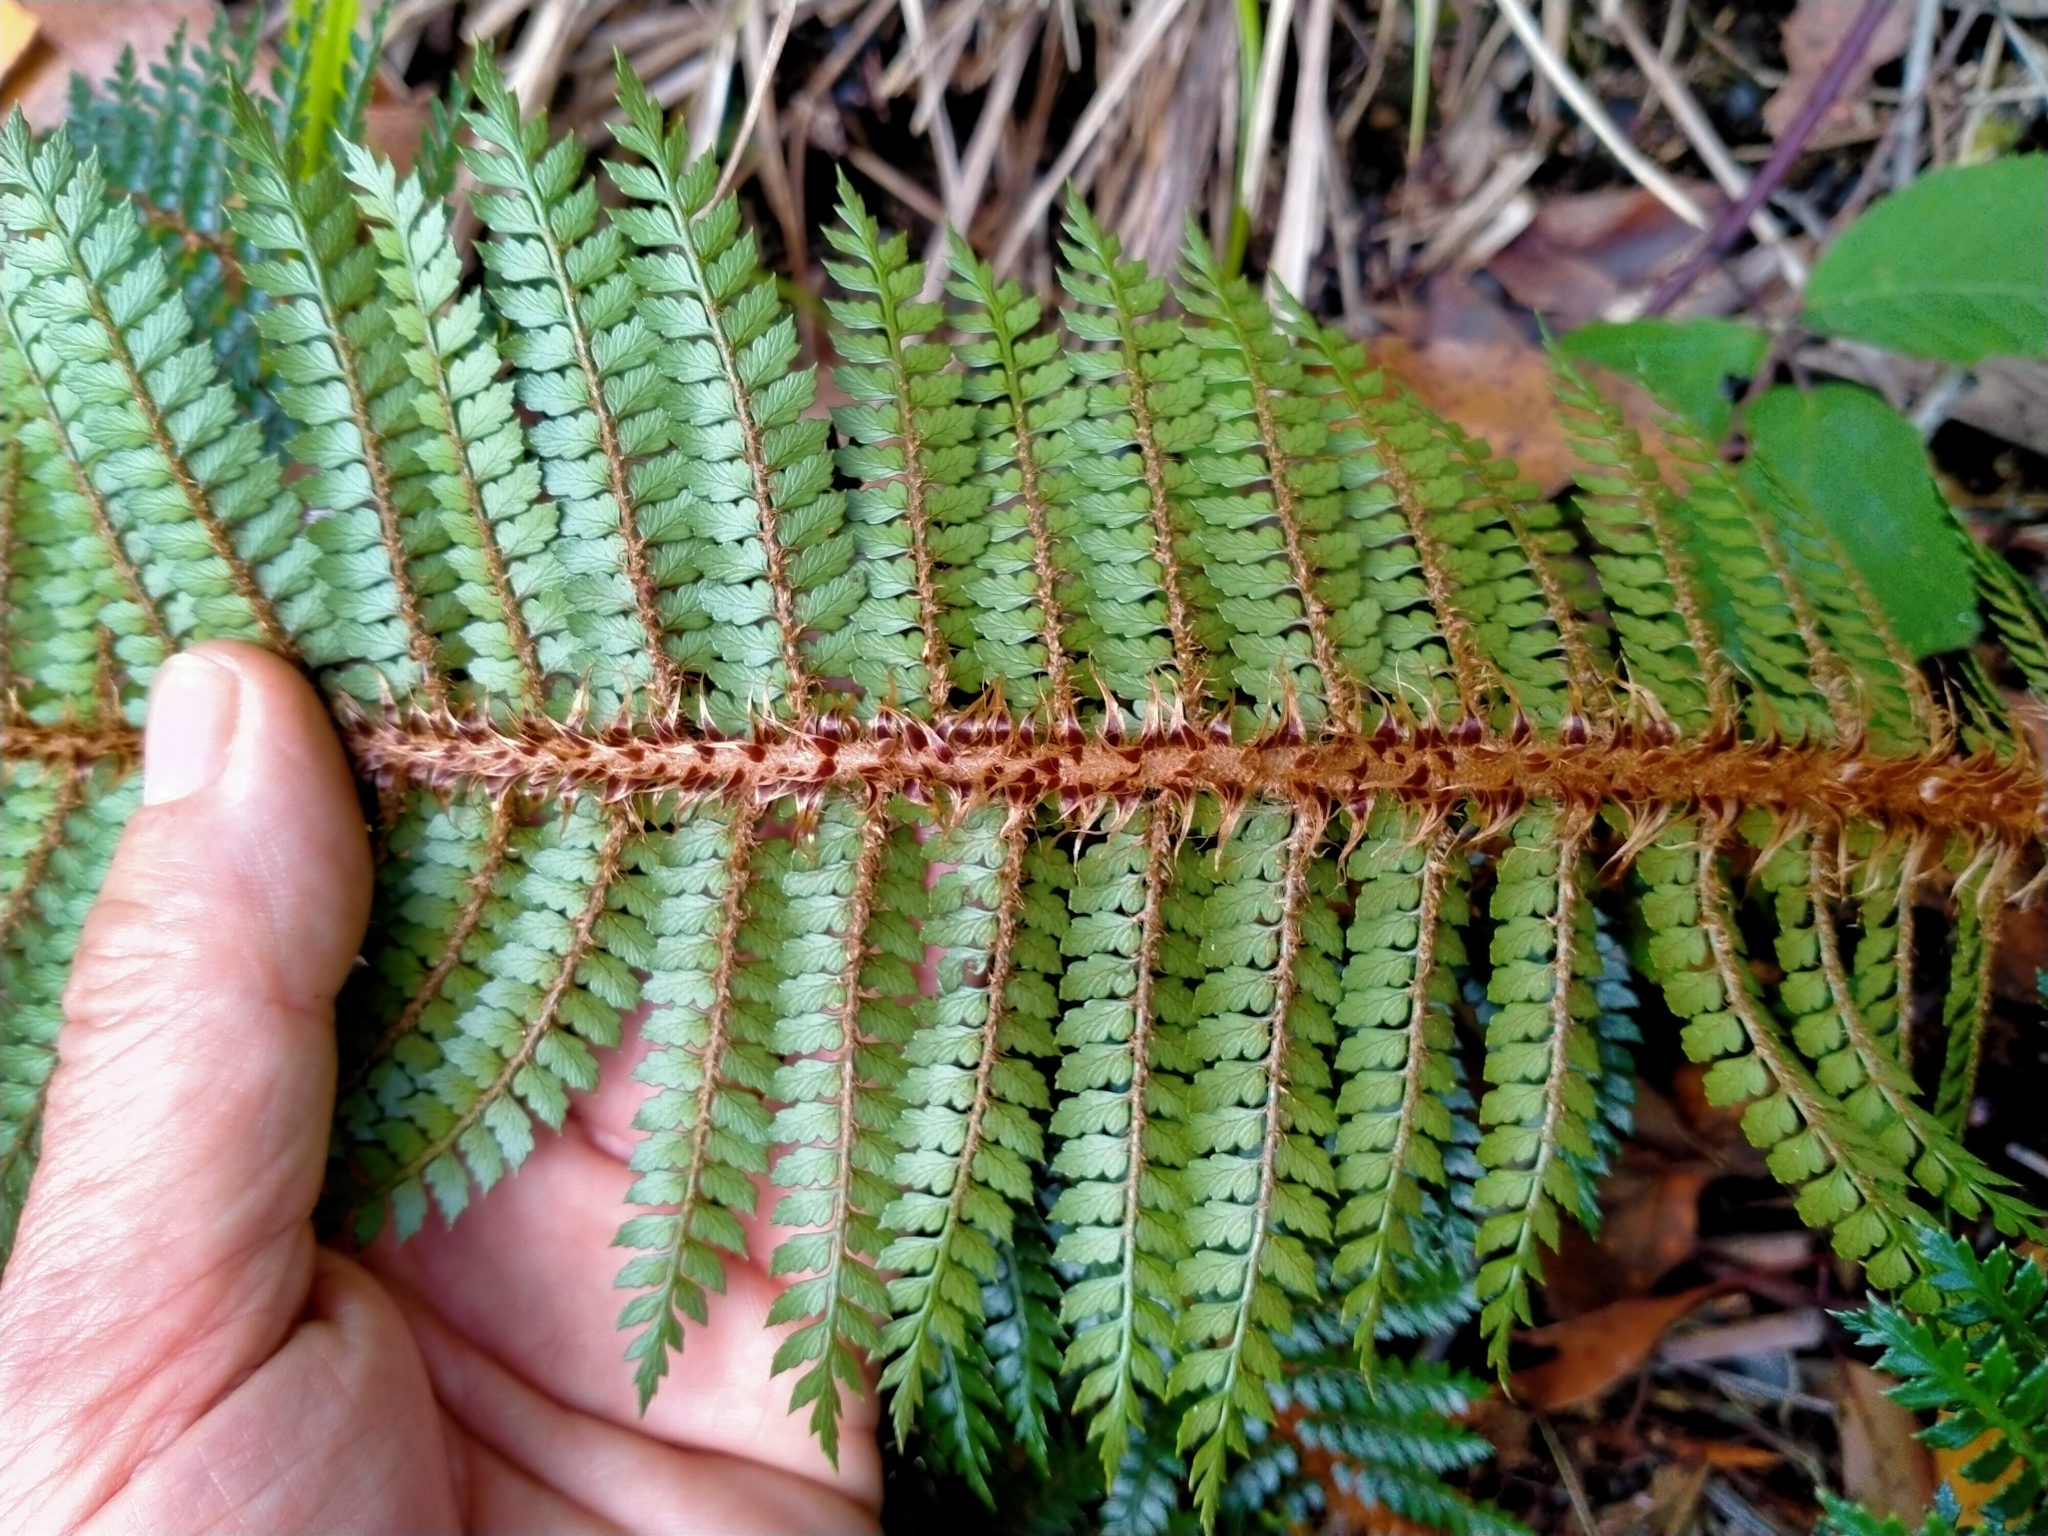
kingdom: Plantae
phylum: Tracheophyta
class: Polypodiopsida
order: Polypodiales
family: Dryopteridaceae
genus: Polystichum
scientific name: Polystichum vestitum
